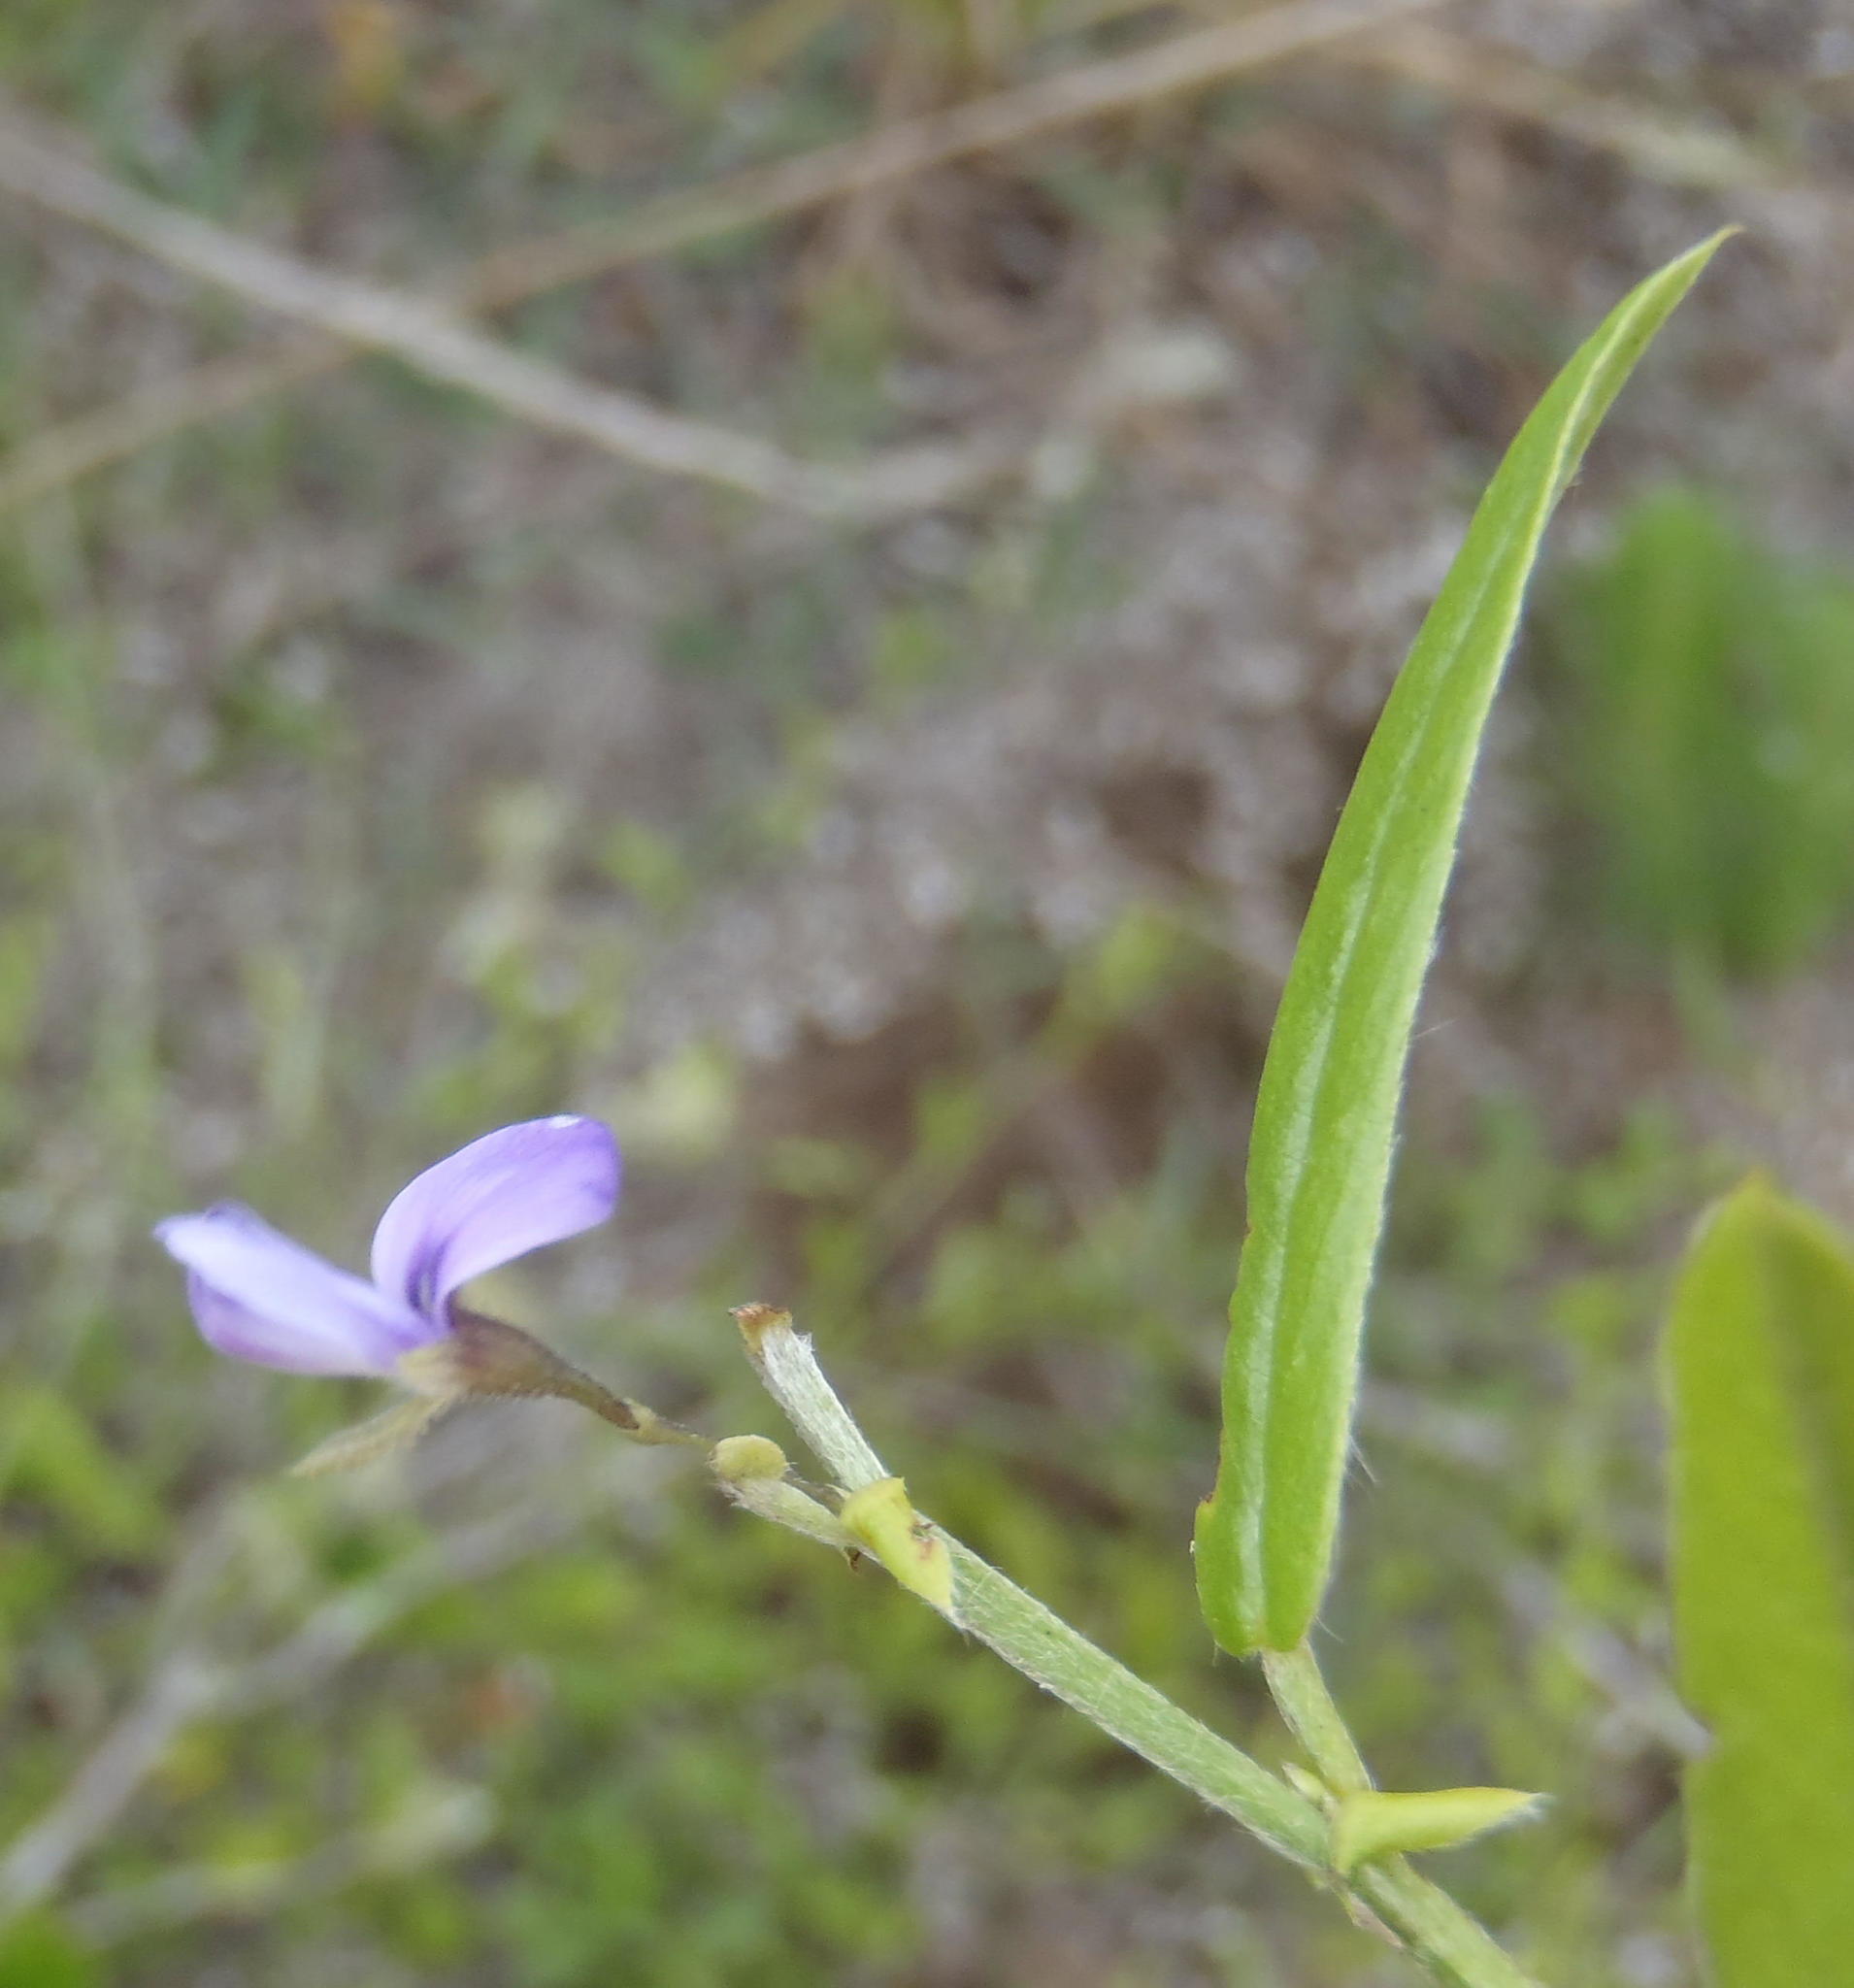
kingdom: Plantae
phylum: Tracheophyta
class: Magnoliopsida
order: Fabales
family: Fabaceae
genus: Psoralea
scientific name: Psoralea asarina
